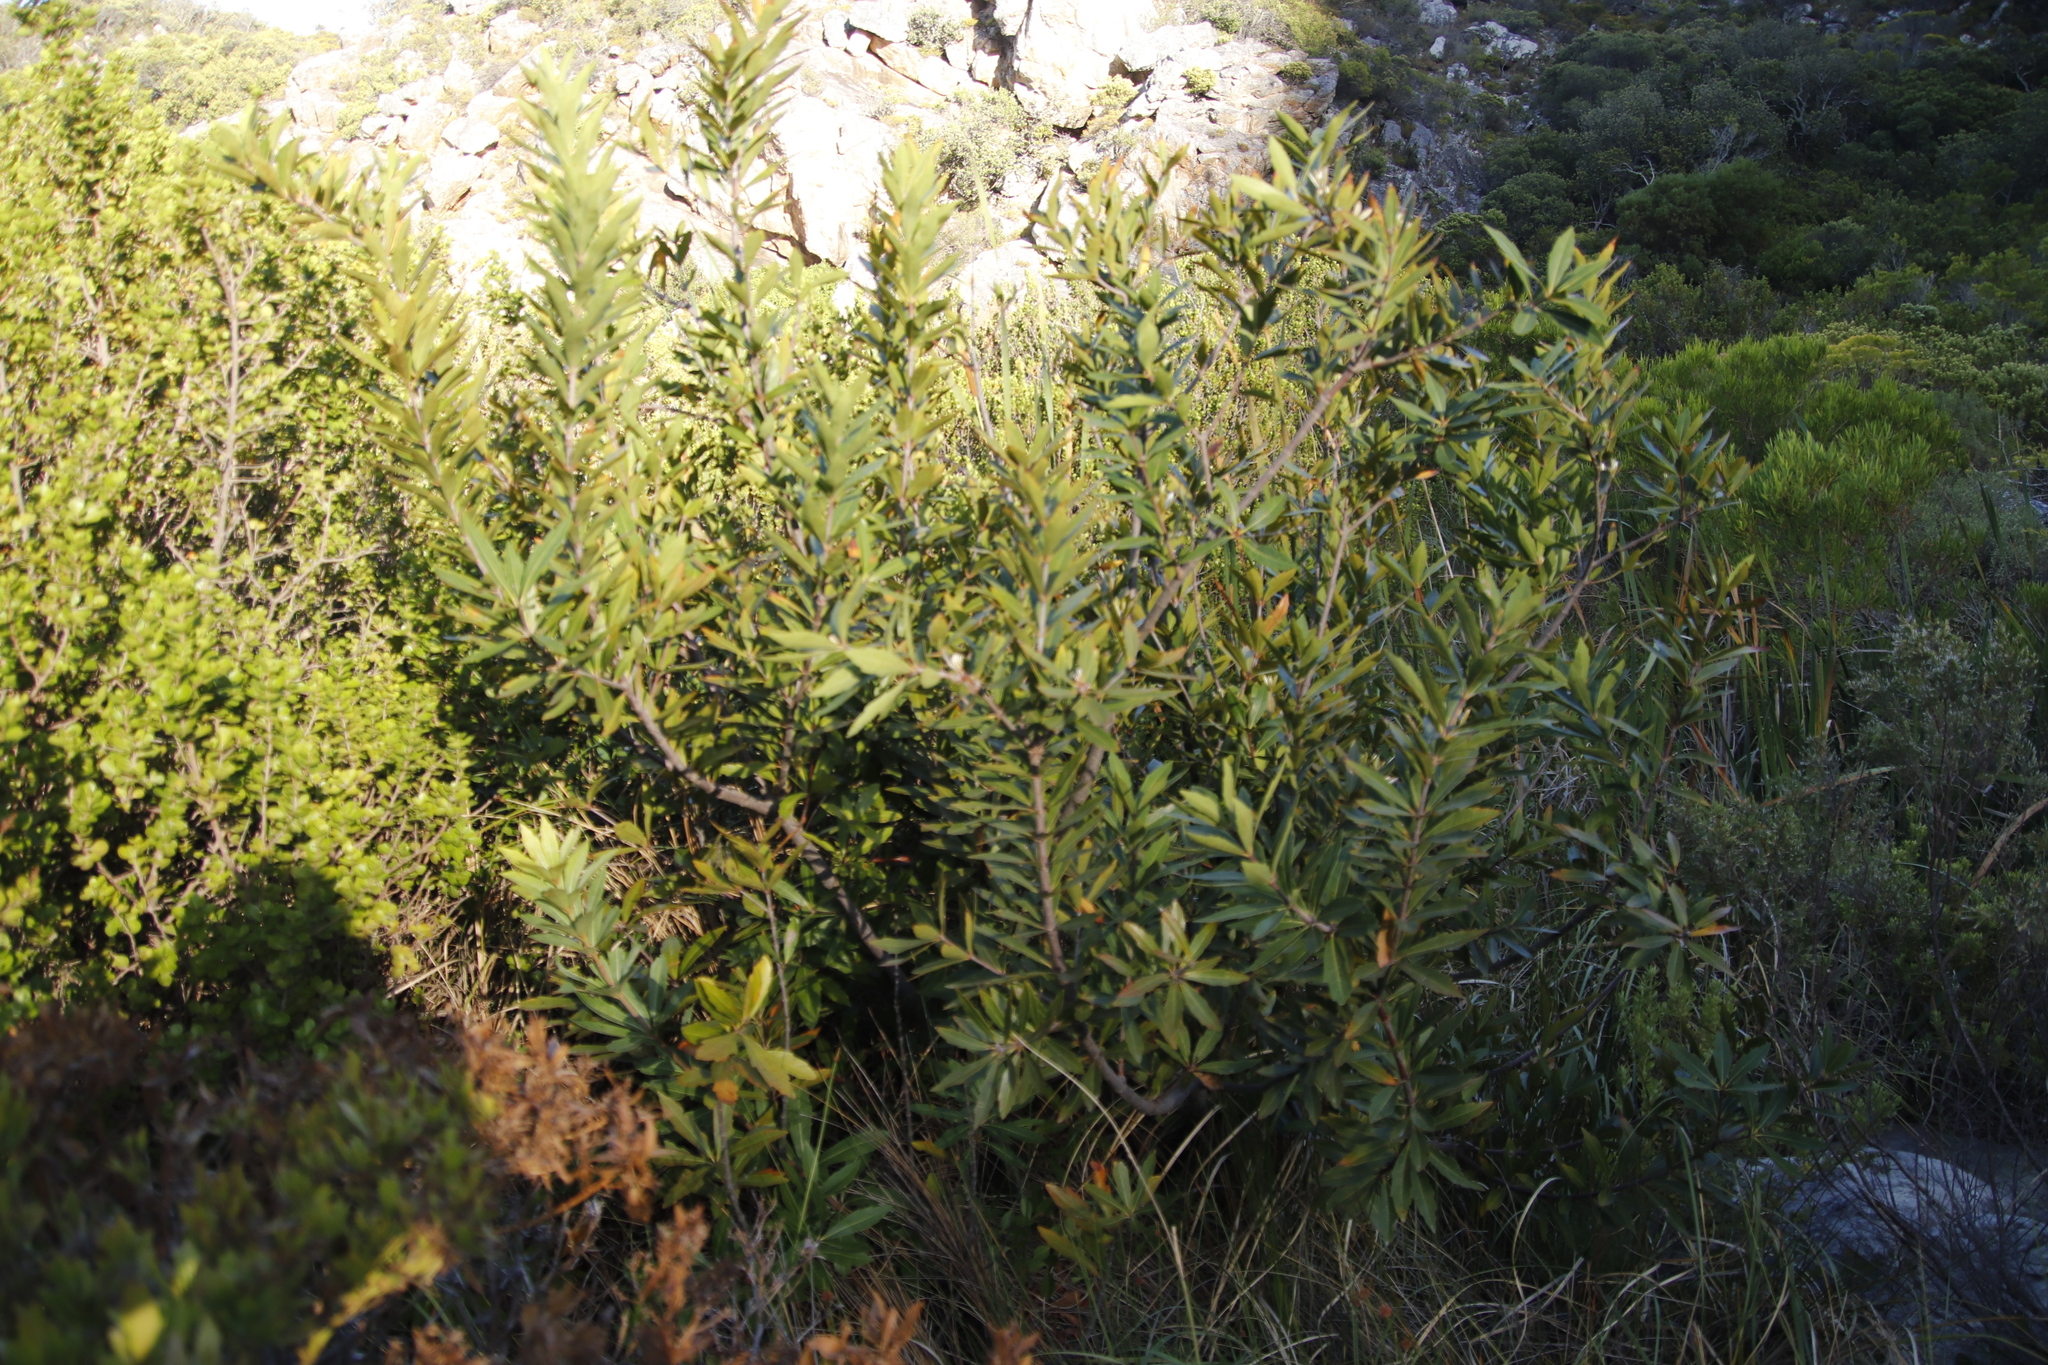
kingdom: Plantae
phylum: Tracheophyta
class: Magnoliopsida
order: Proteales
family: Proteaceae
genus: Brabejum
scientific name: Brabejum stellatifolium
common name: Wild almond
